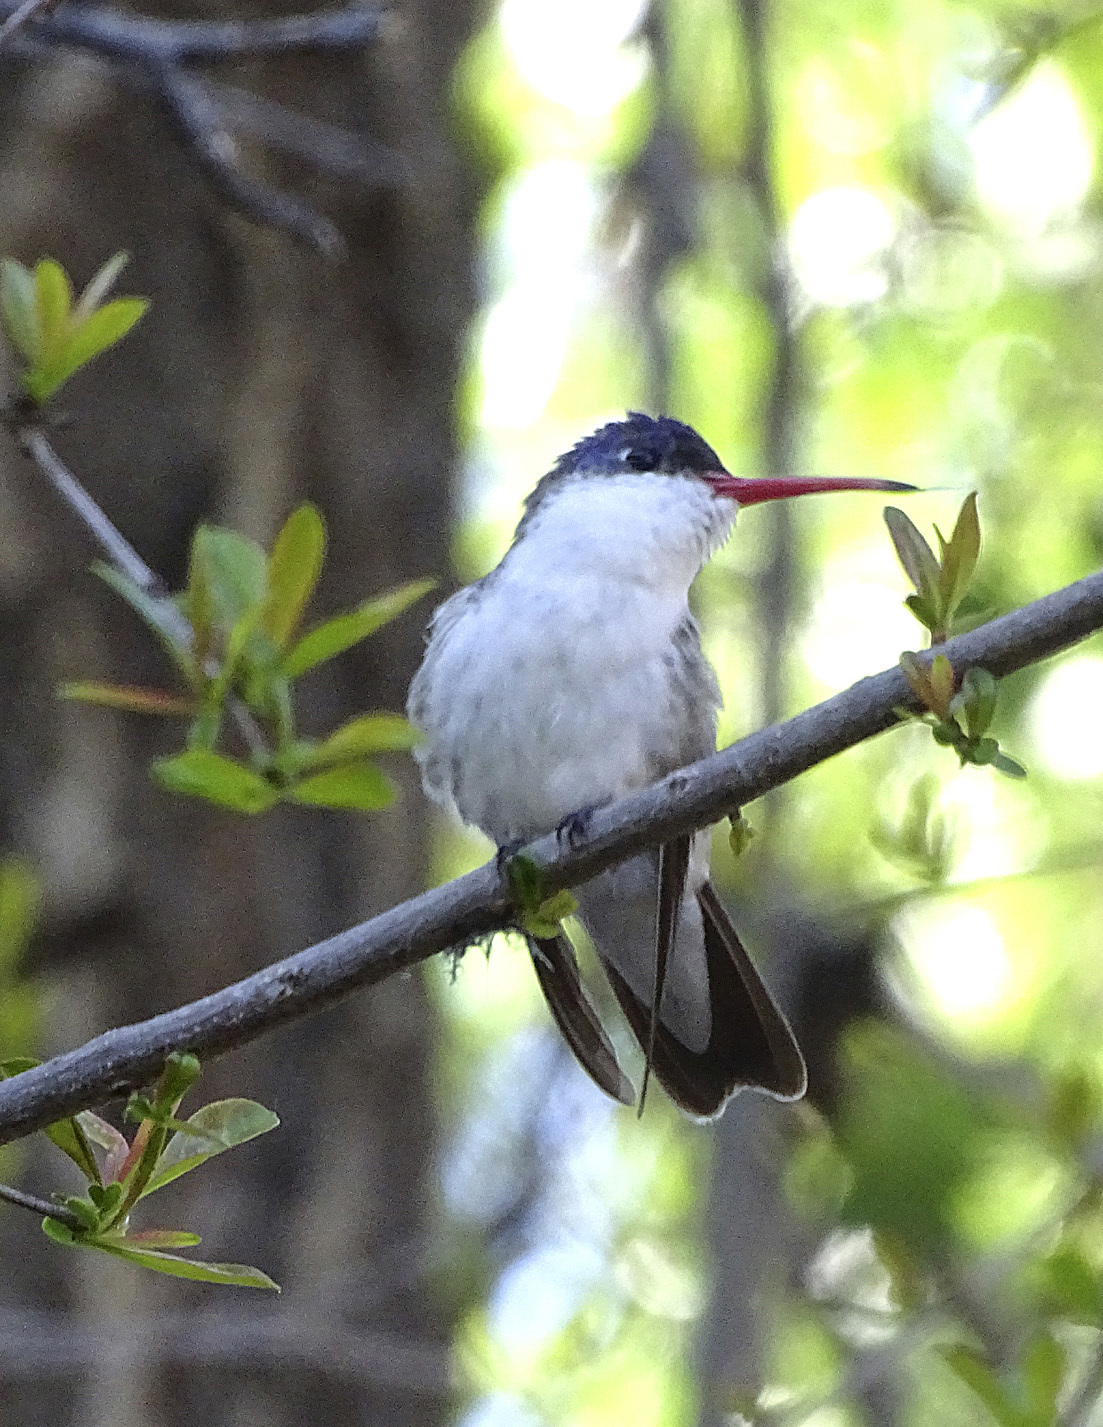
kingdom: Animalia
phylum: Chordata
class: Aves
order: Apodiformes
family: Trochilidae
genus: Leucolia
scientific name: Leucolia violiceps
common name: Violet-crowned hummingbird
